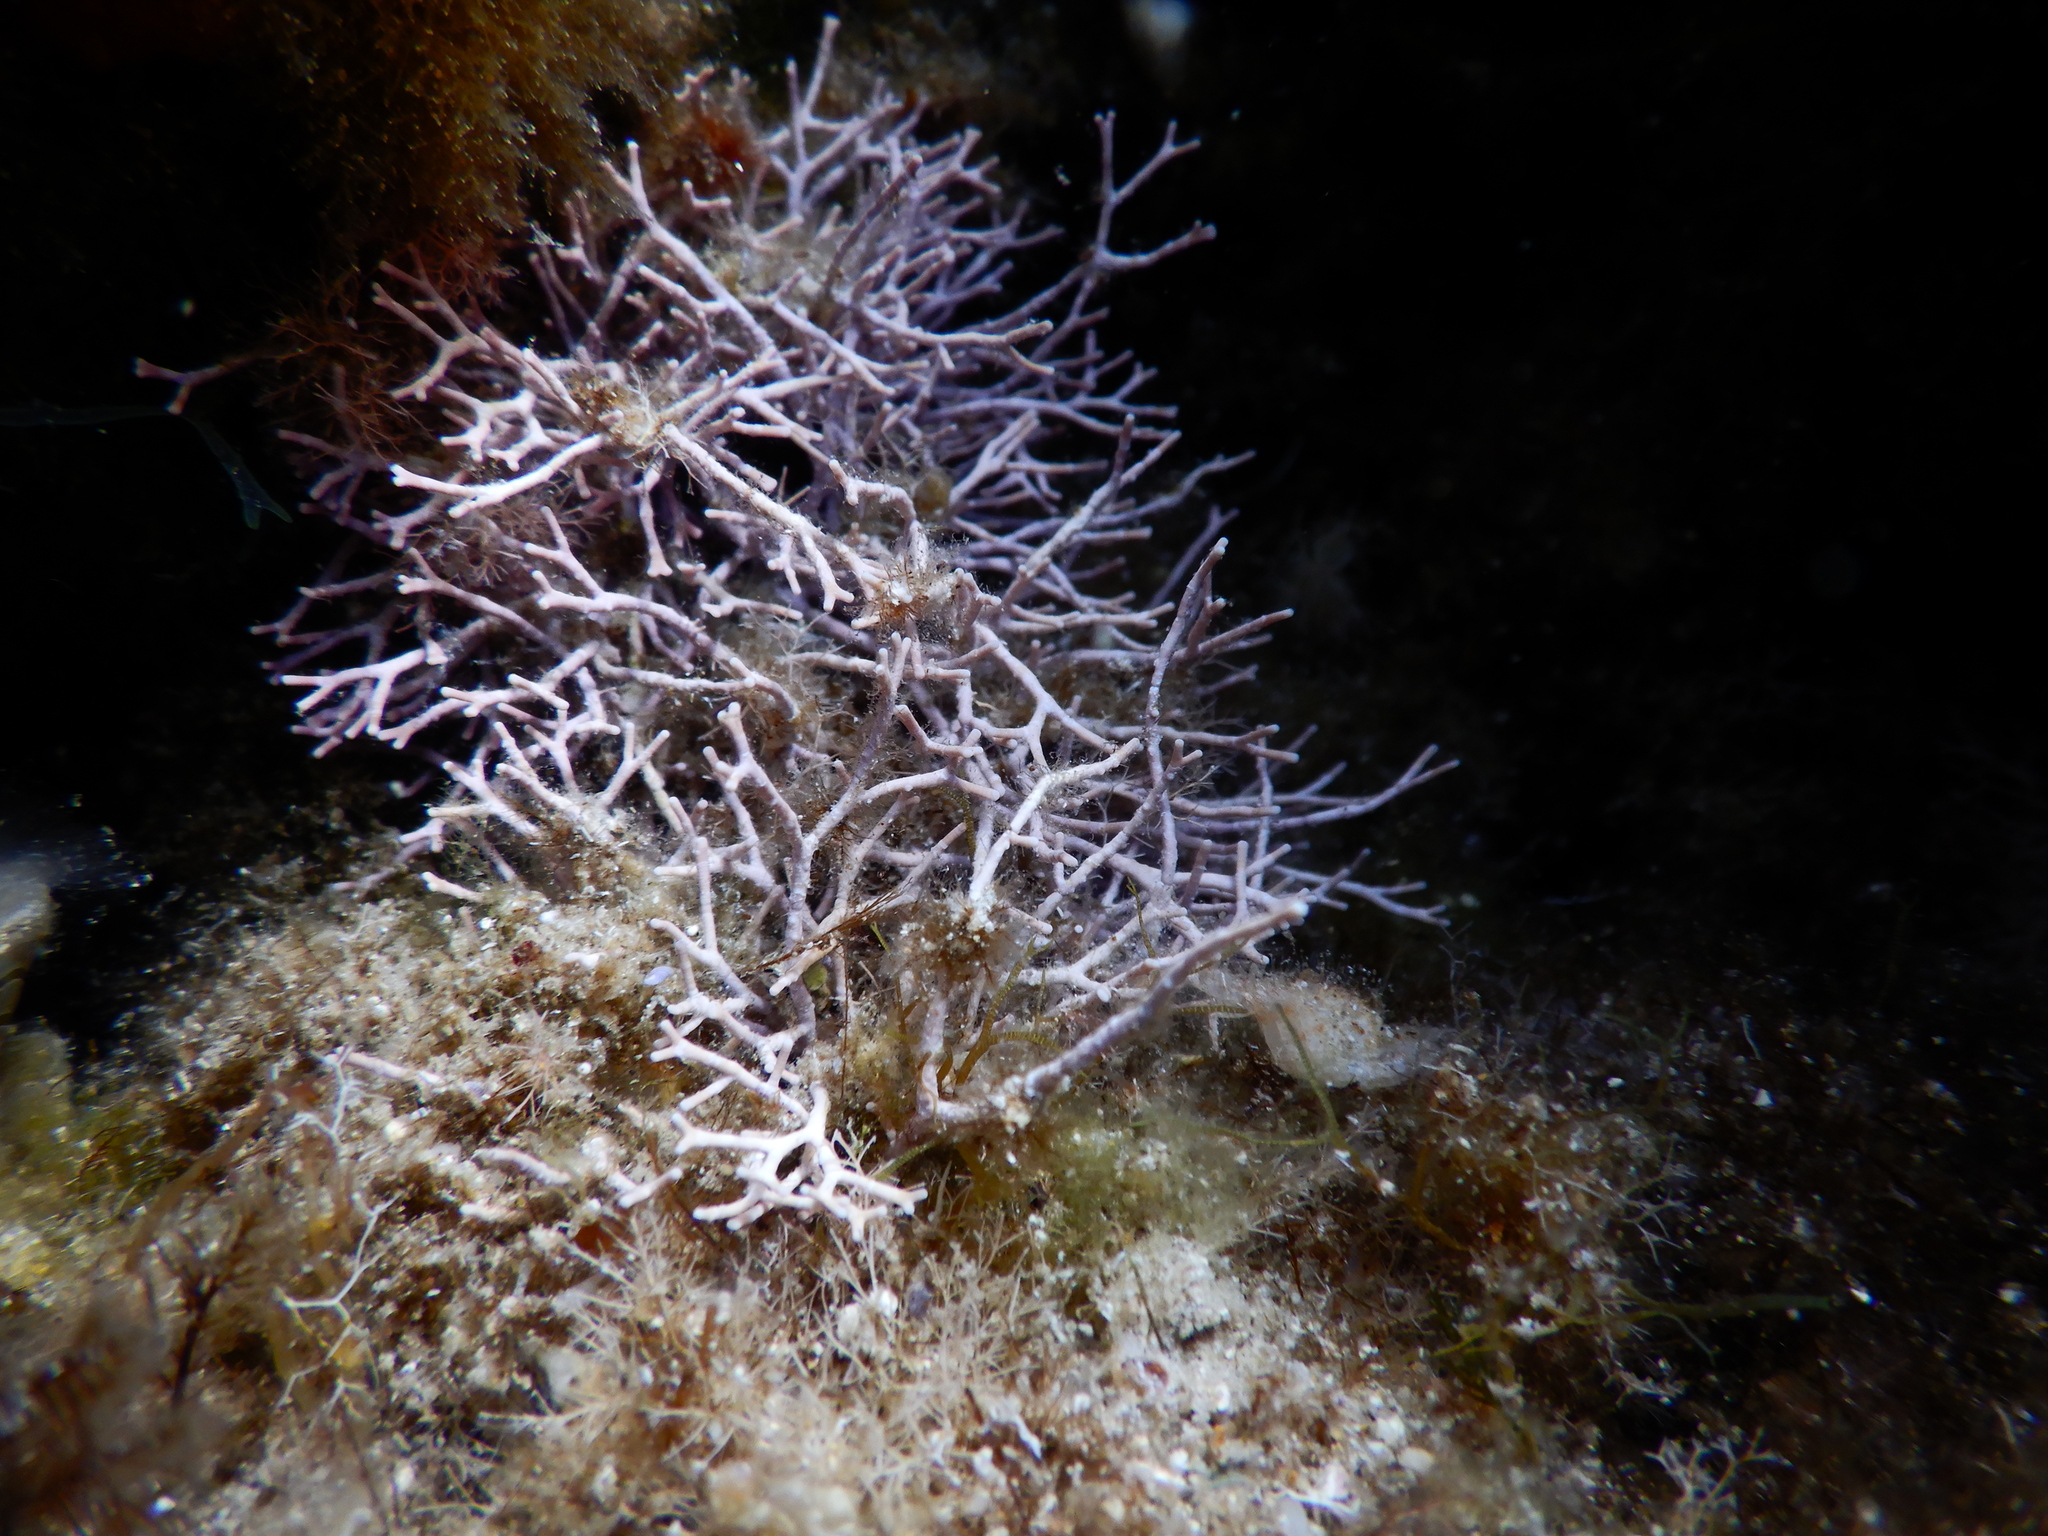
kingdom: Plantae
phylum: Rhodophyta
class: Florideophyceae
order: Corallinales
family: Lithophyllaceae
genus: Amphiroa
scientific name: Amphiroa rigida
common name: Y-twig algae
